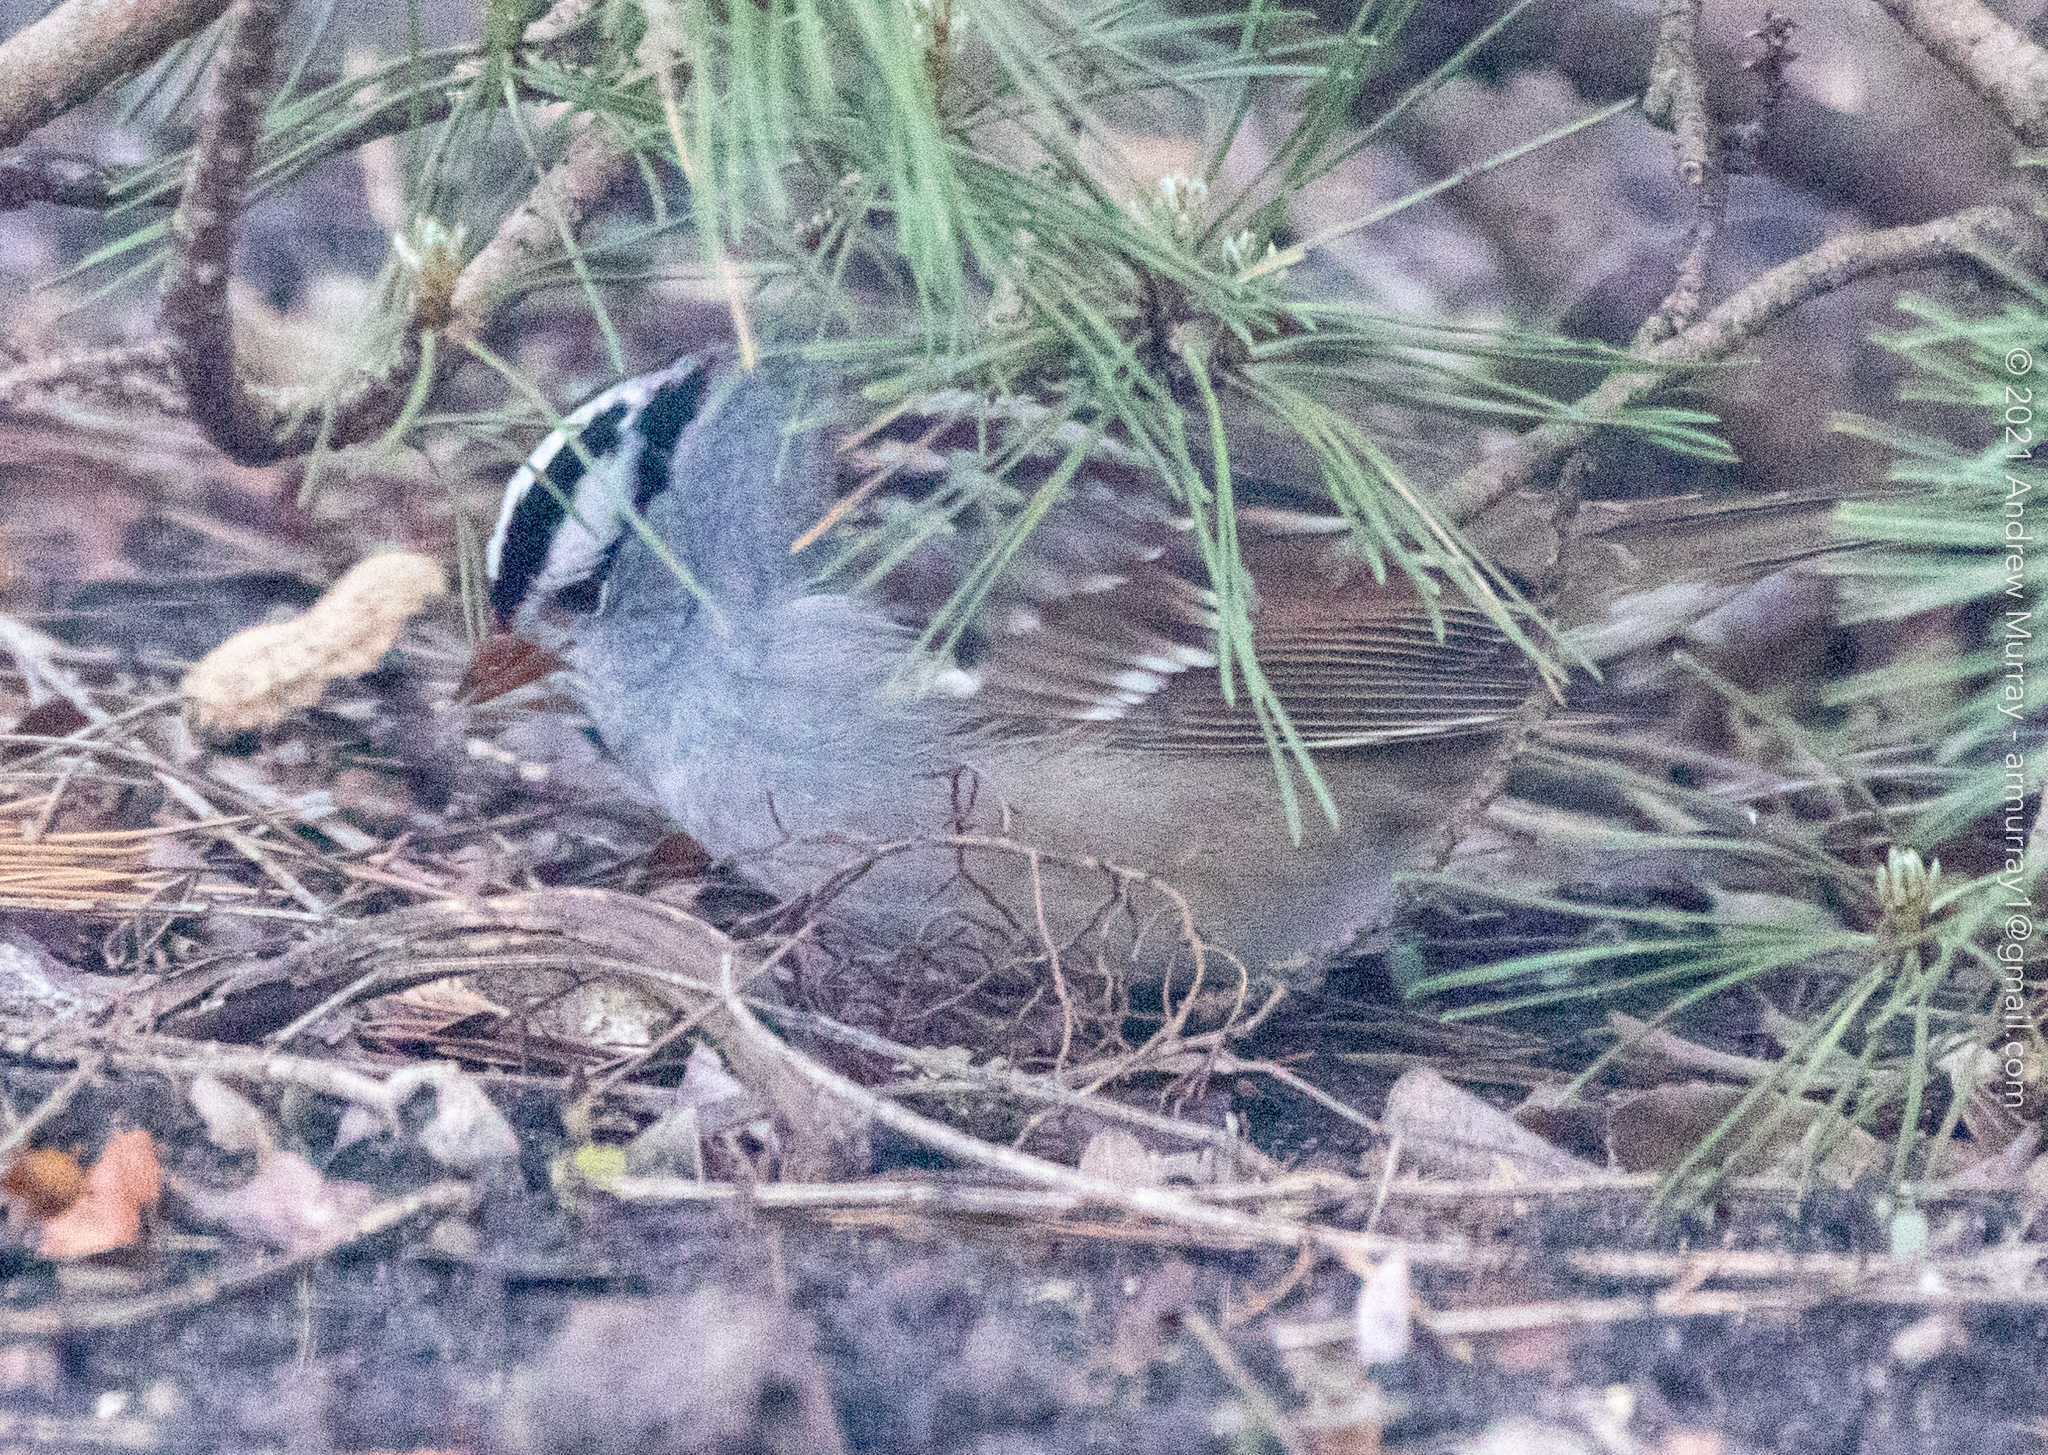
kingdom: Animalia
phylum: Chordata
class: Aves
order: Passeriformes
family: Passerellidae
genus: Zonotrichia
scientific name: Zonotrichia leucophrys
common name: White-crowned sparrow
